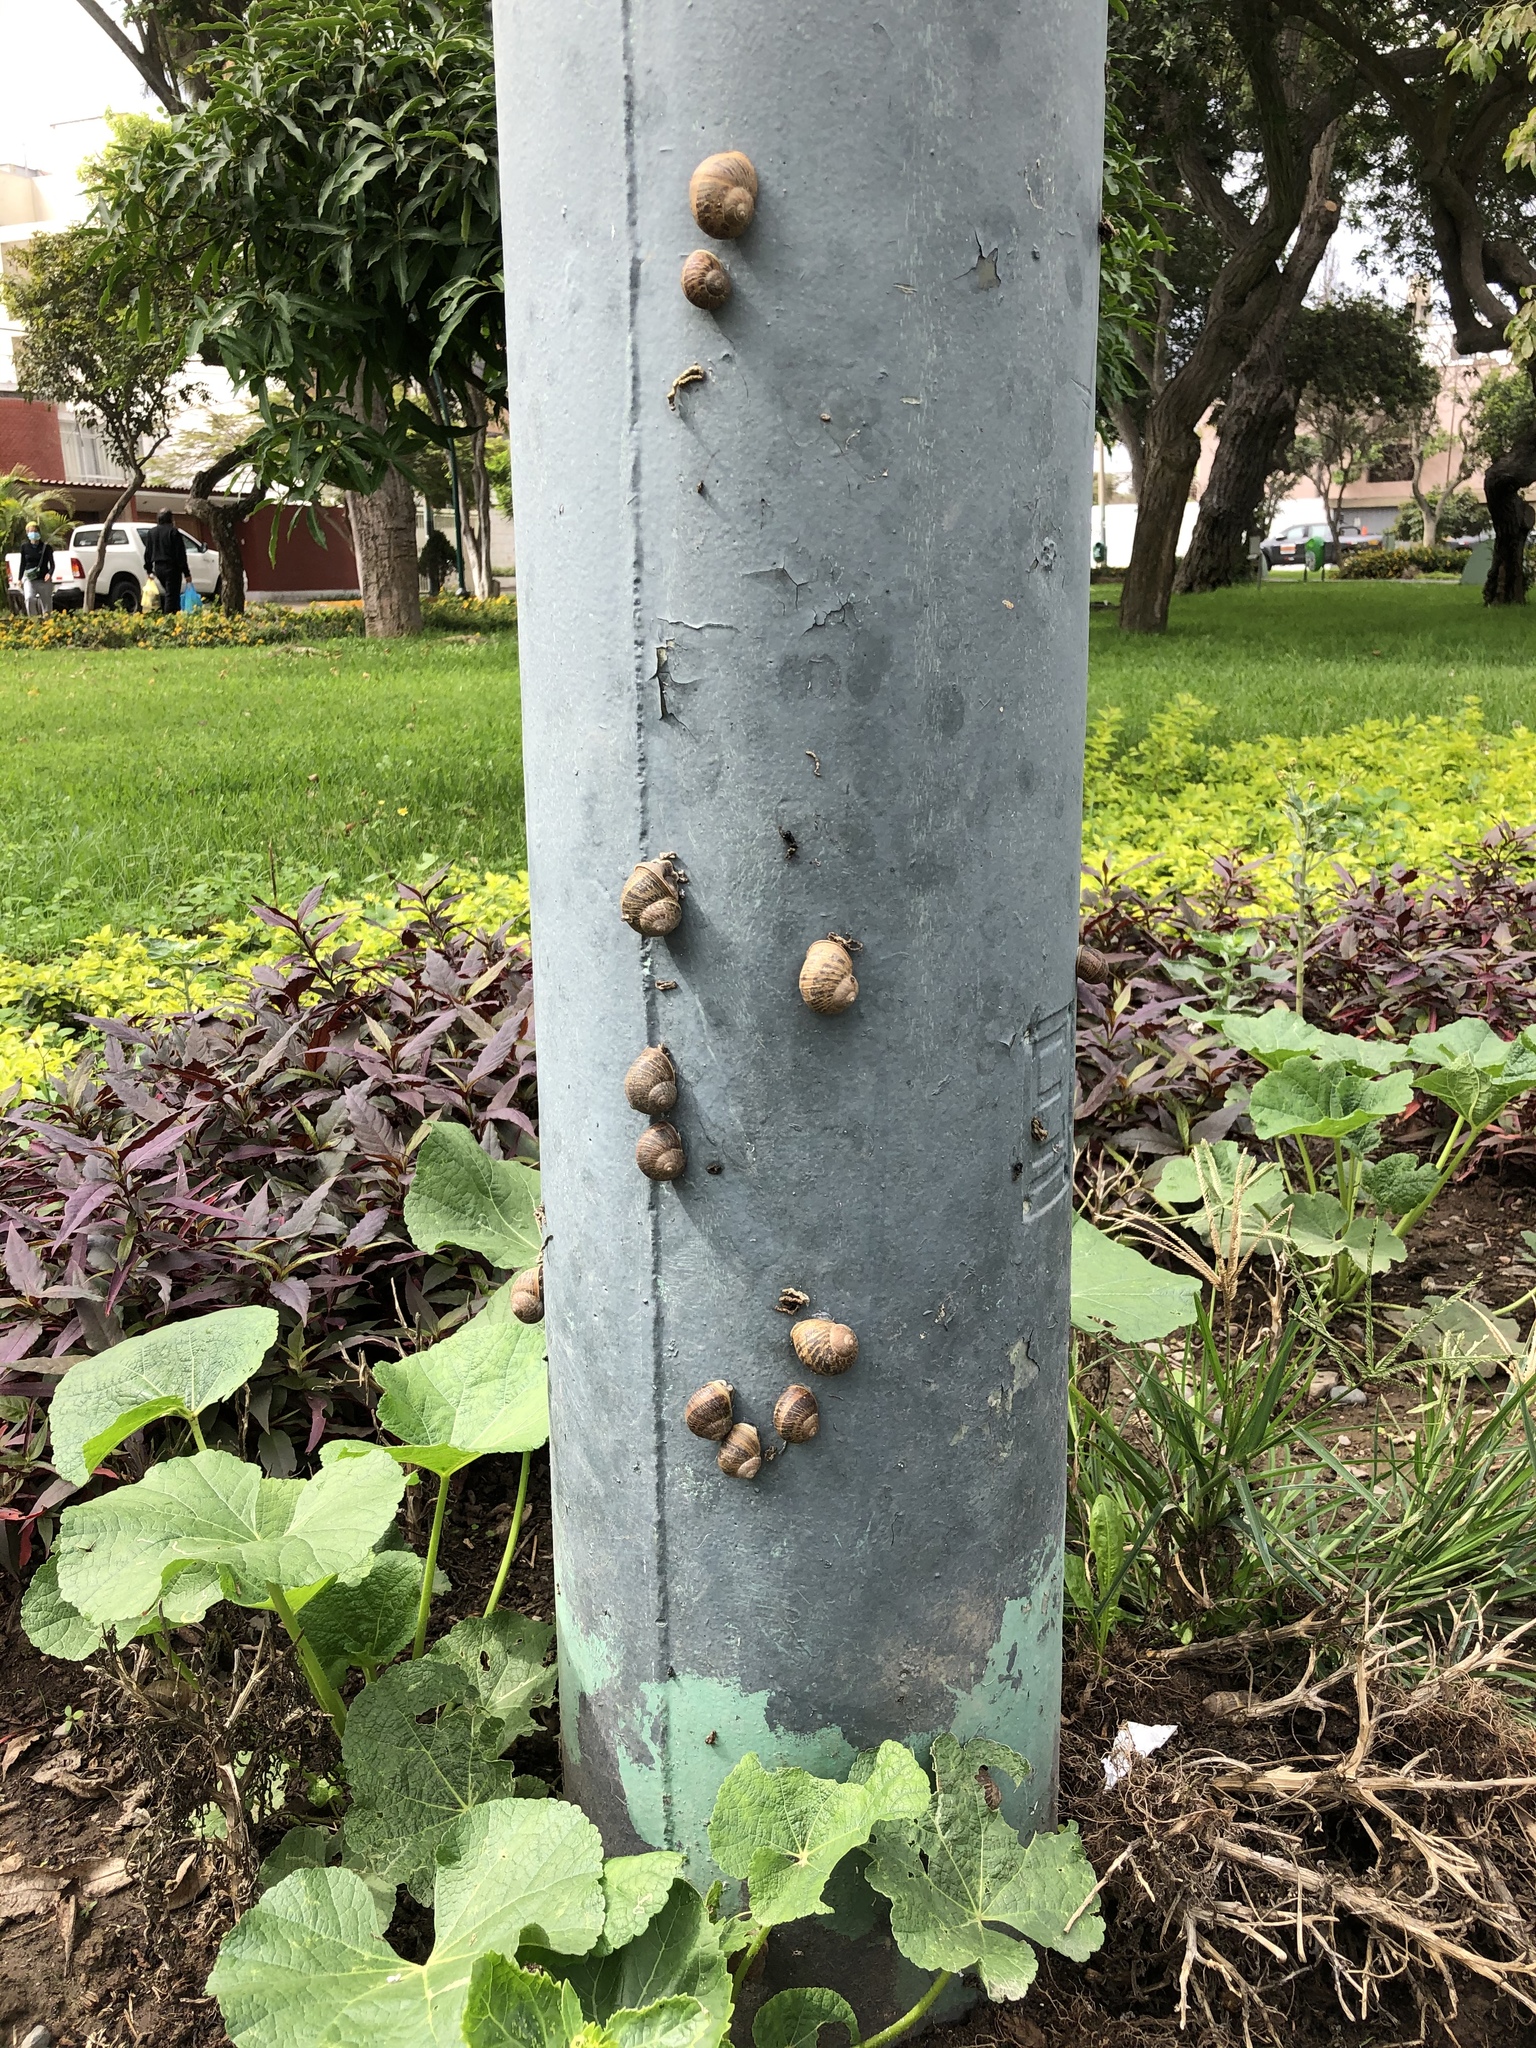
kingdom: Animalia
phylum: Mollusca
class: Gastropoda
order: Stylommatophora
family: Helicidae
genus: Cornu
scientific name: Cornu aspersum
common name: Brown garden snail
